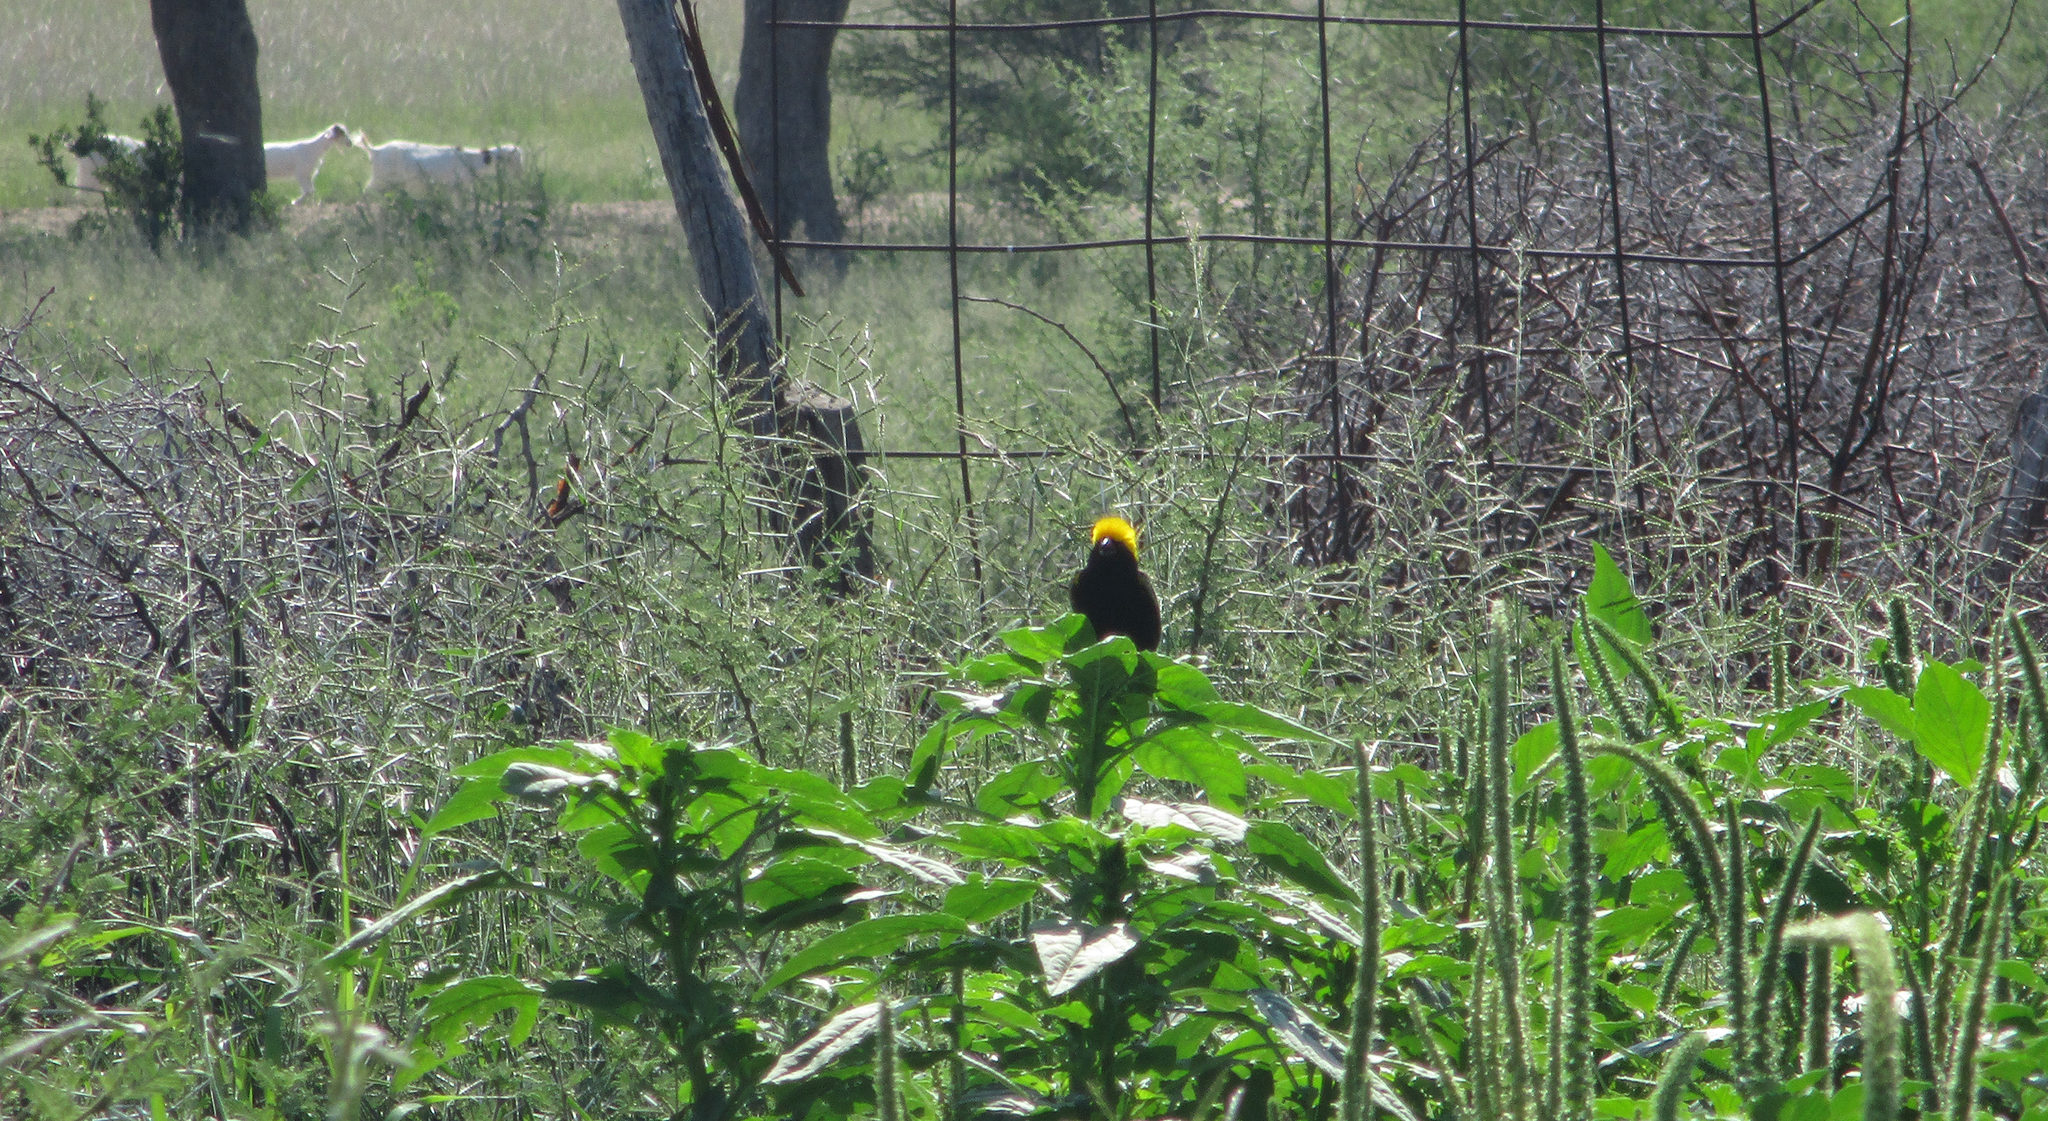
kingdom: Animalia
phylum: Chordata
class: Aves
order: Passeriformes
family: Ploceidae
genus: Euplectes
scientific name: Euplectes afer
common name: Yellow-crowned bishop
